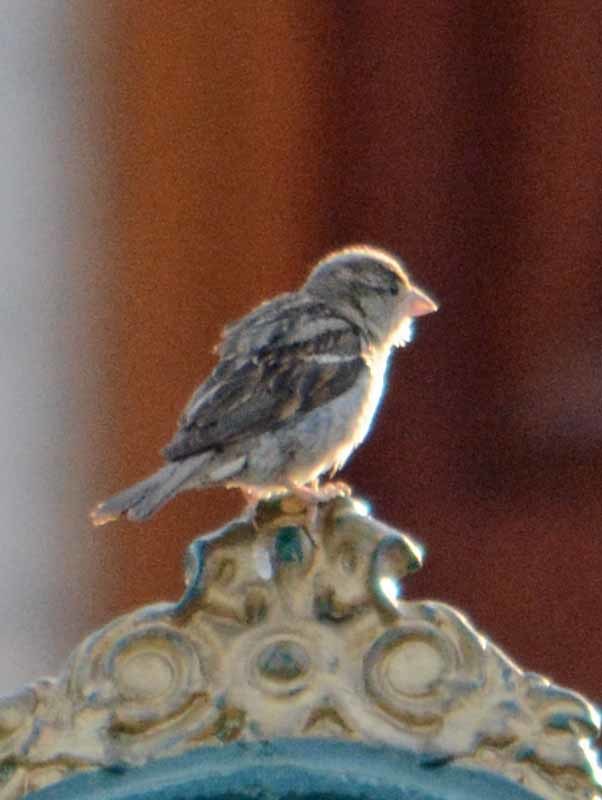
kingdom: Animalia
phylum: Chordata
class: Aves
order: Passeriformes
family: Passeridae
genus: Passer
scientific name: Passer domesticus
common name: House sparrow
